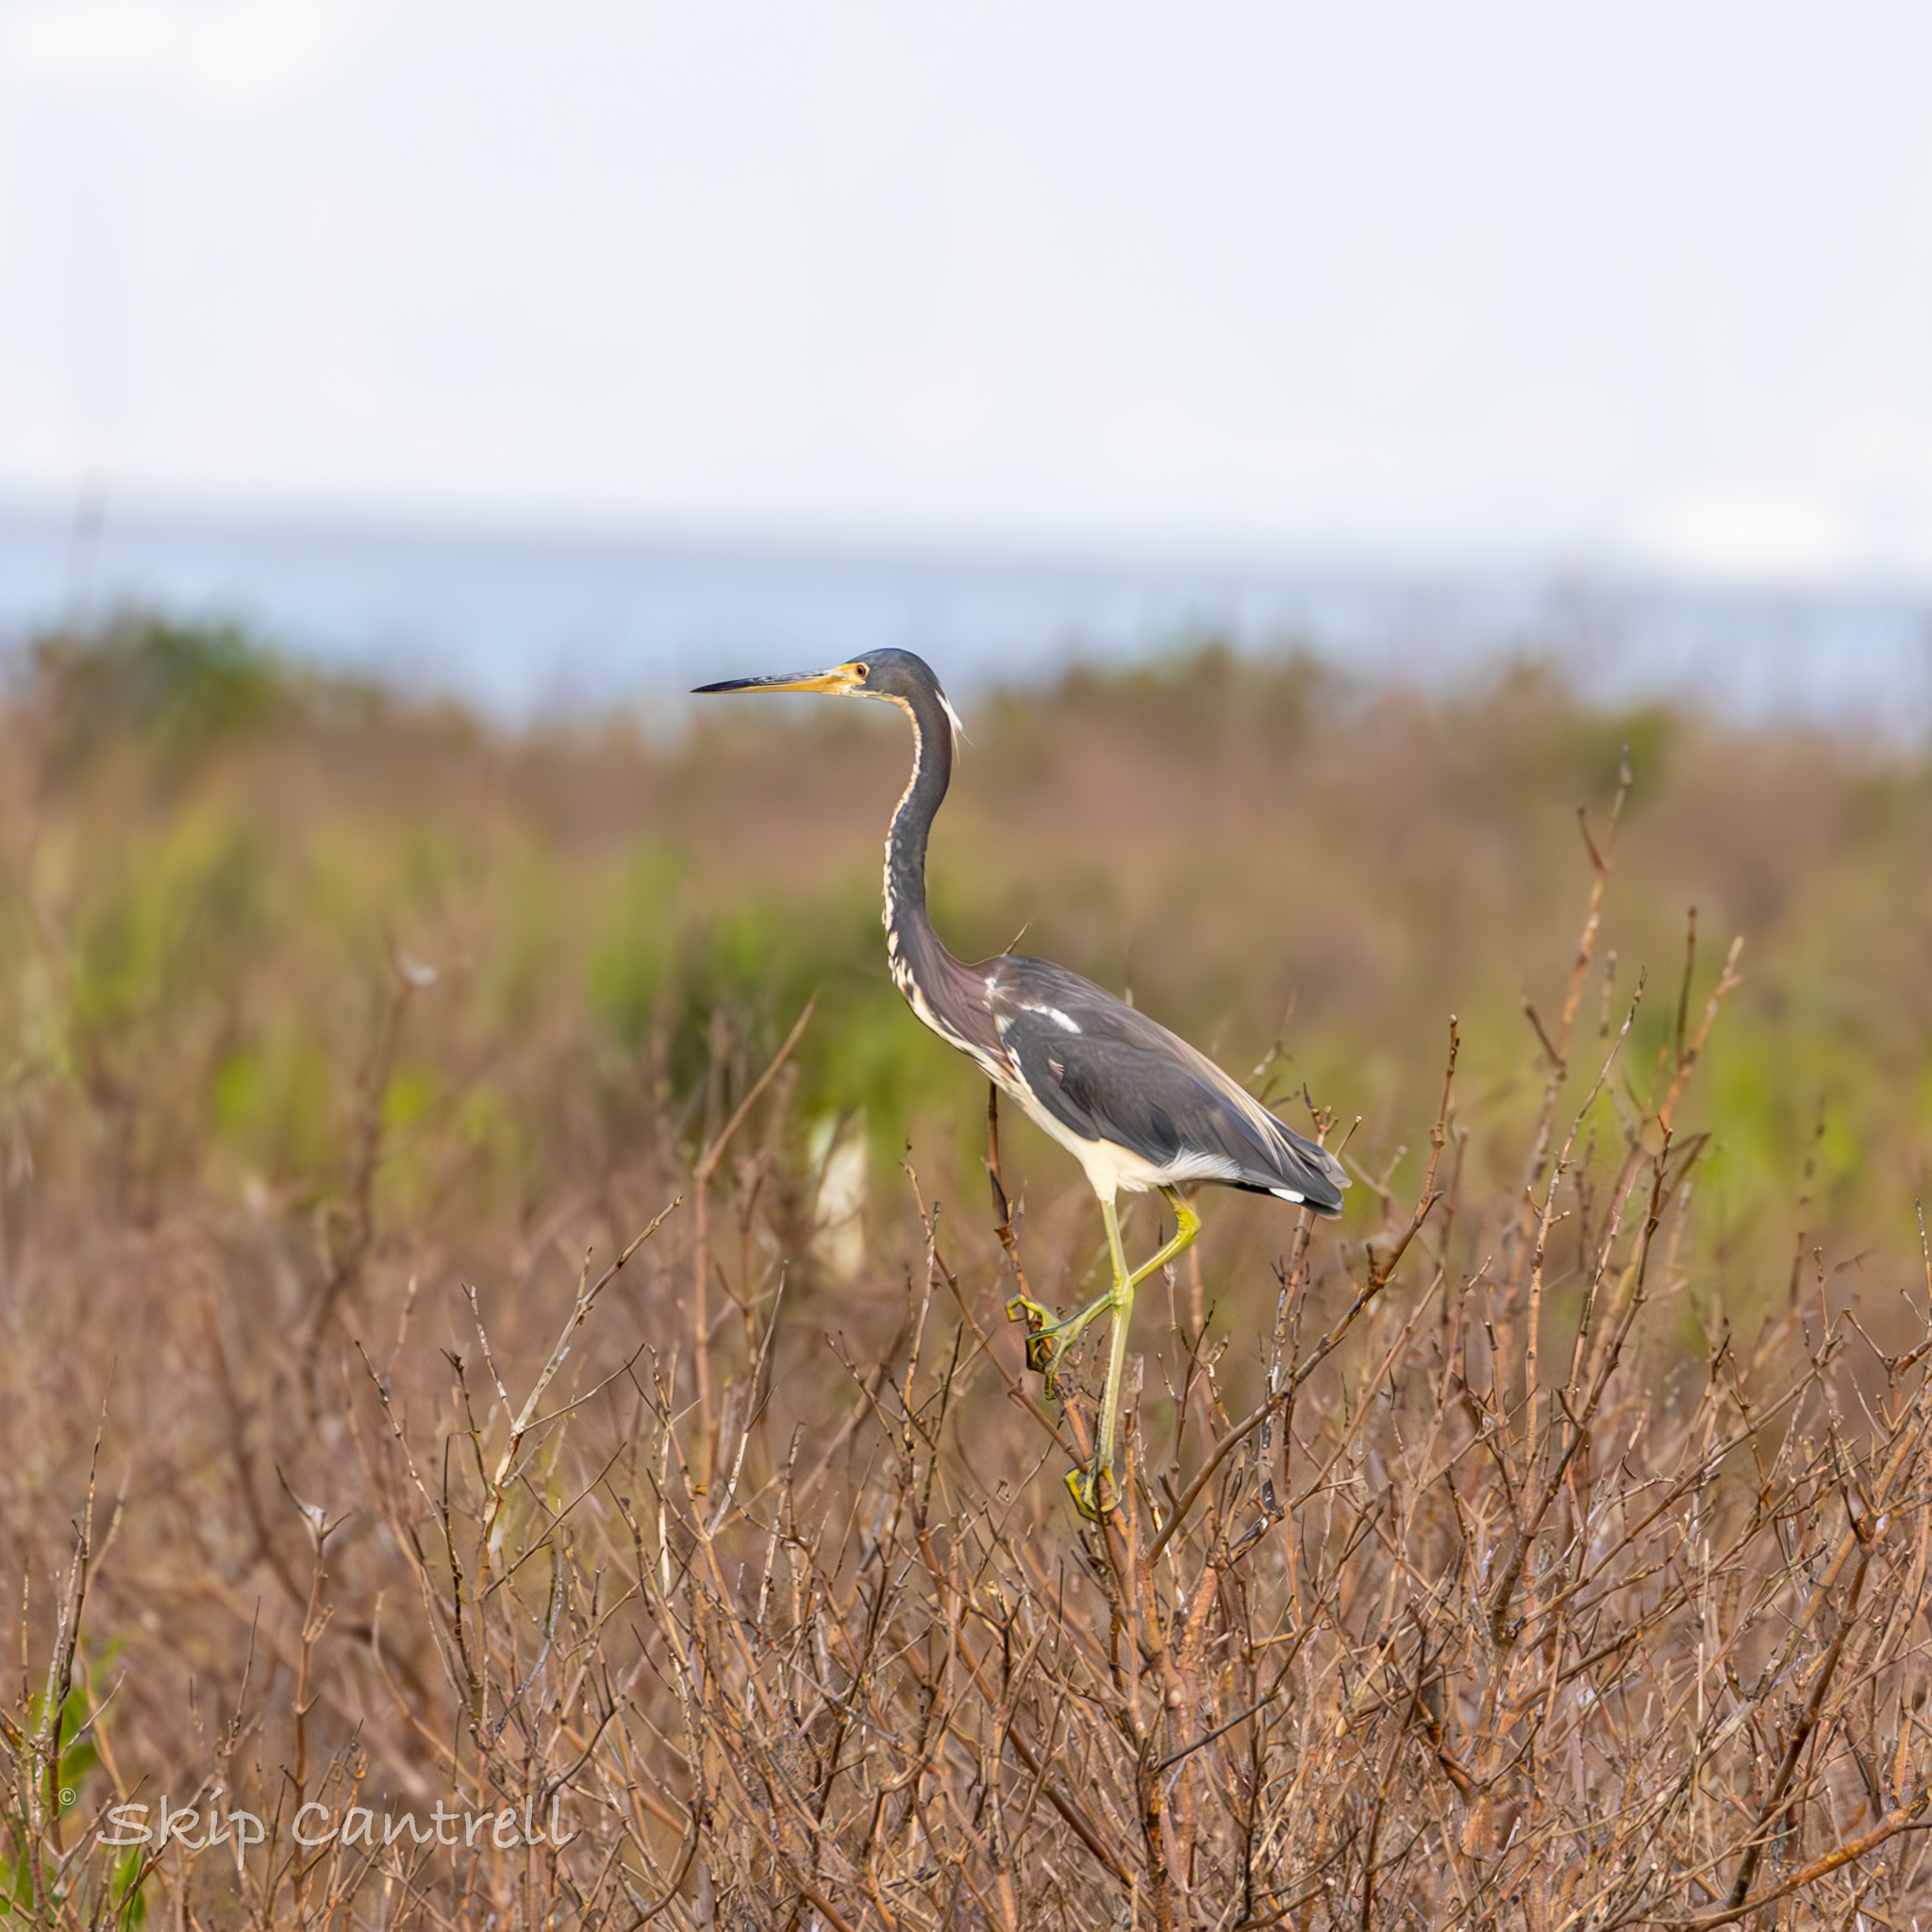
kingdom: Animalia
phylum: Chordata
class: Aves
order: Pelecaniformes
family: Ardeidae
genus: Egretta
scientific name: Egretta tricolor
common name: Tricolored heron
